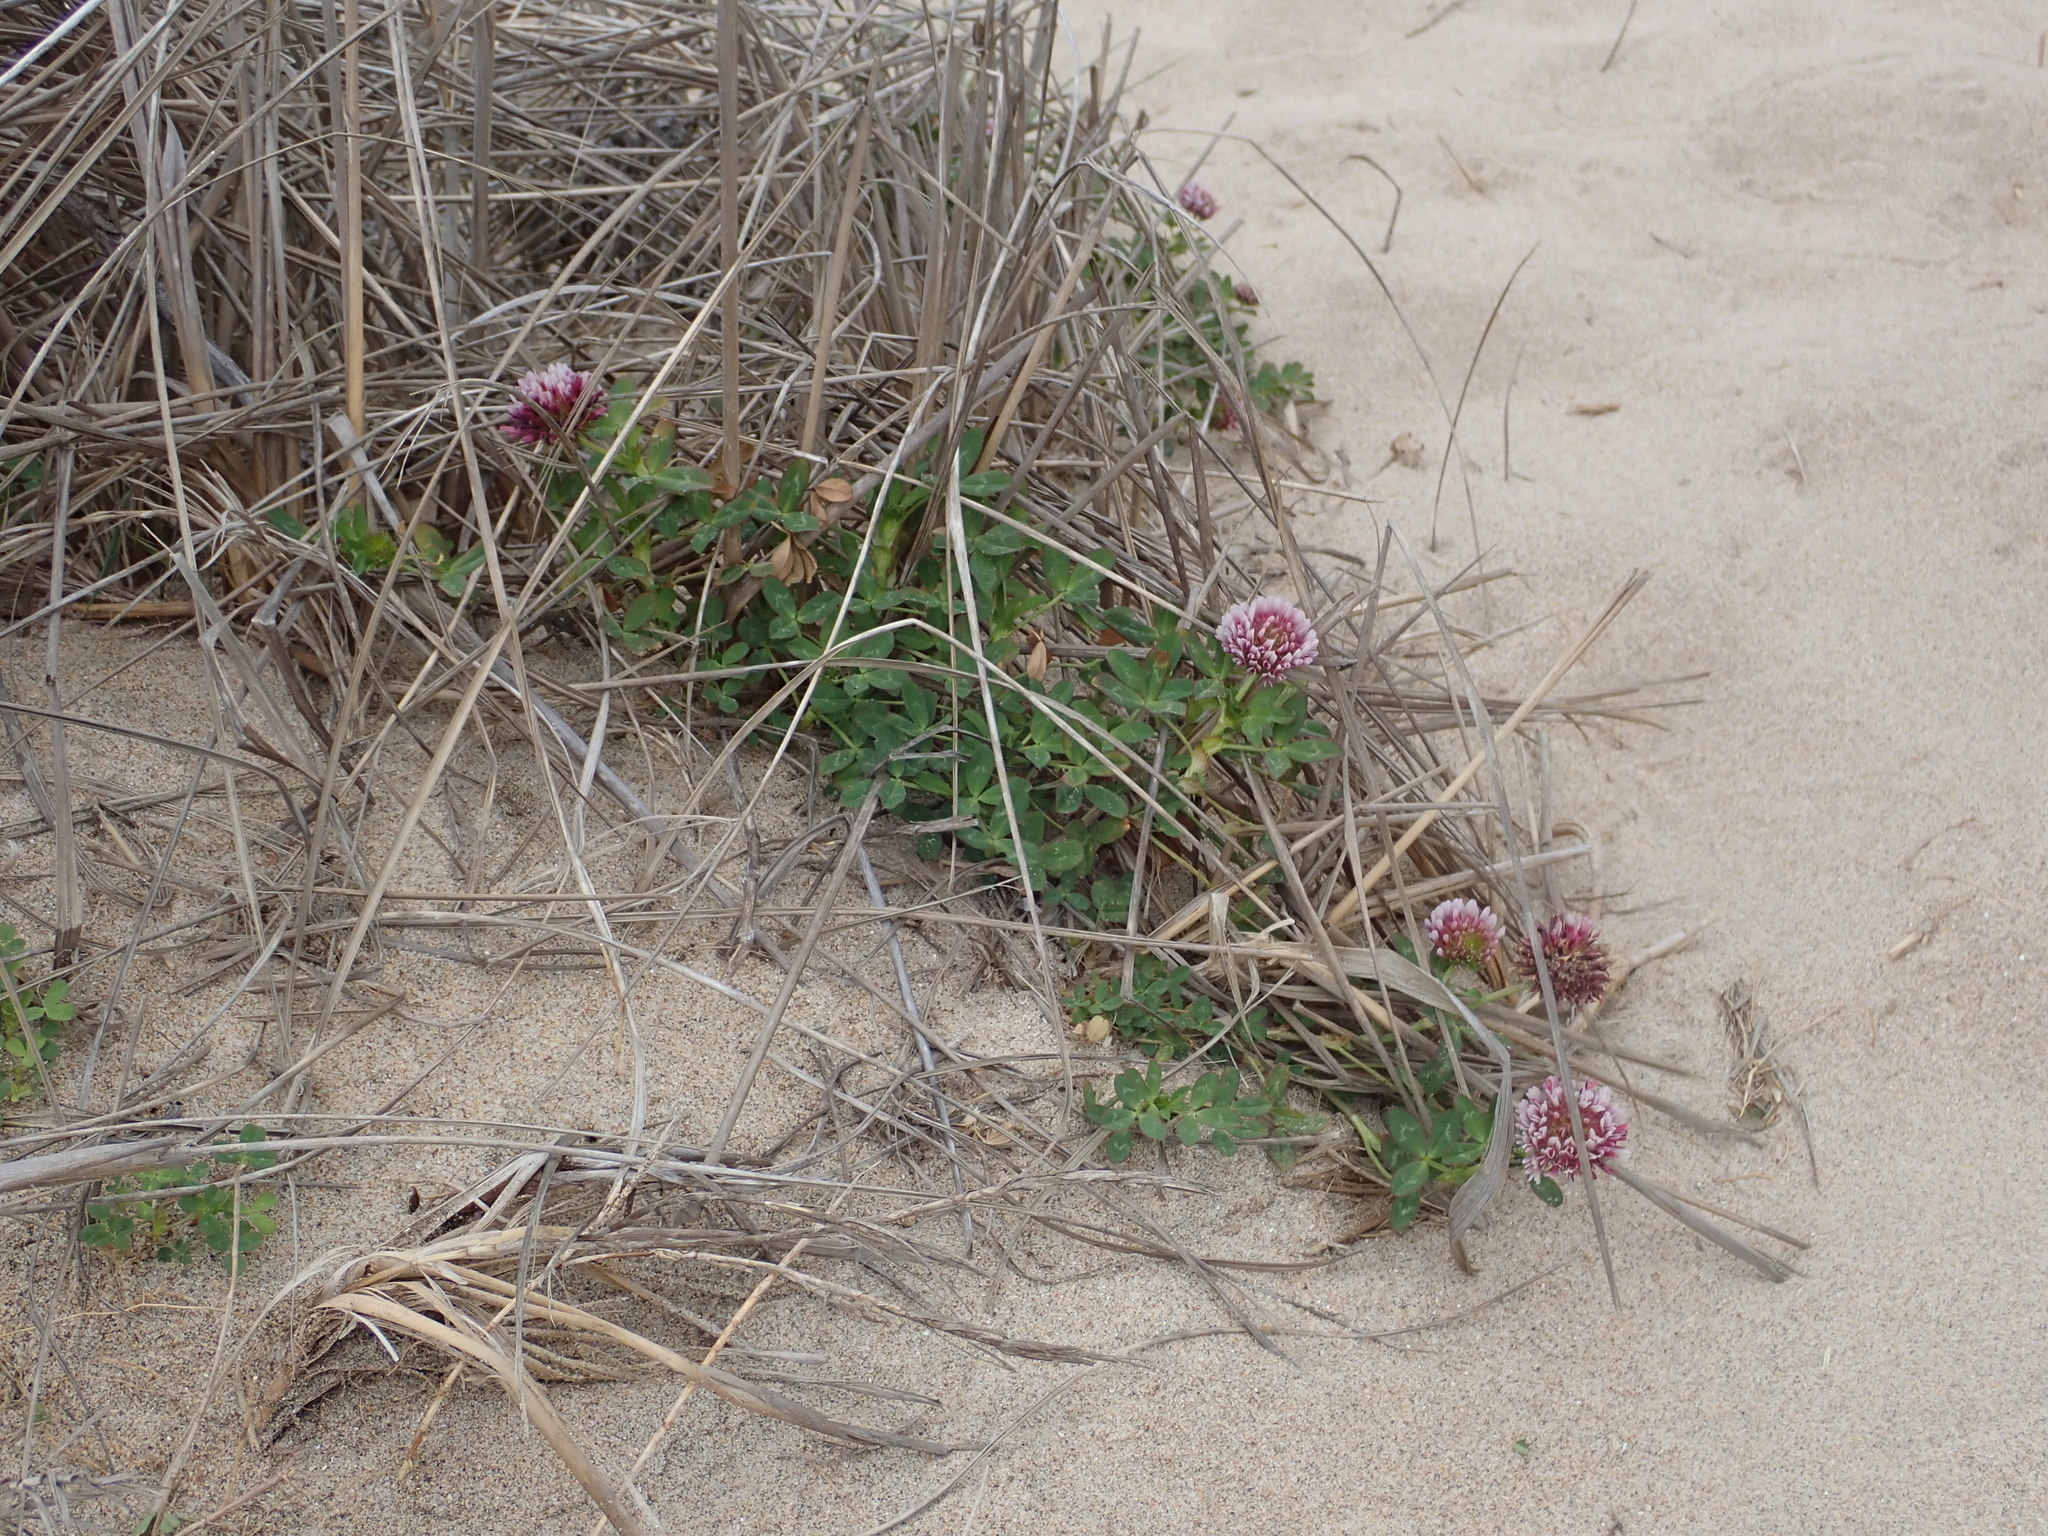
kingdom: Plantae
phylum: Tracheophyta
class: Magnoliopsida
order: Fabales
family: Fabaceae
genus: Trifolium
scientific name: Trifolium wormskioldii
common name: Springbank clover
